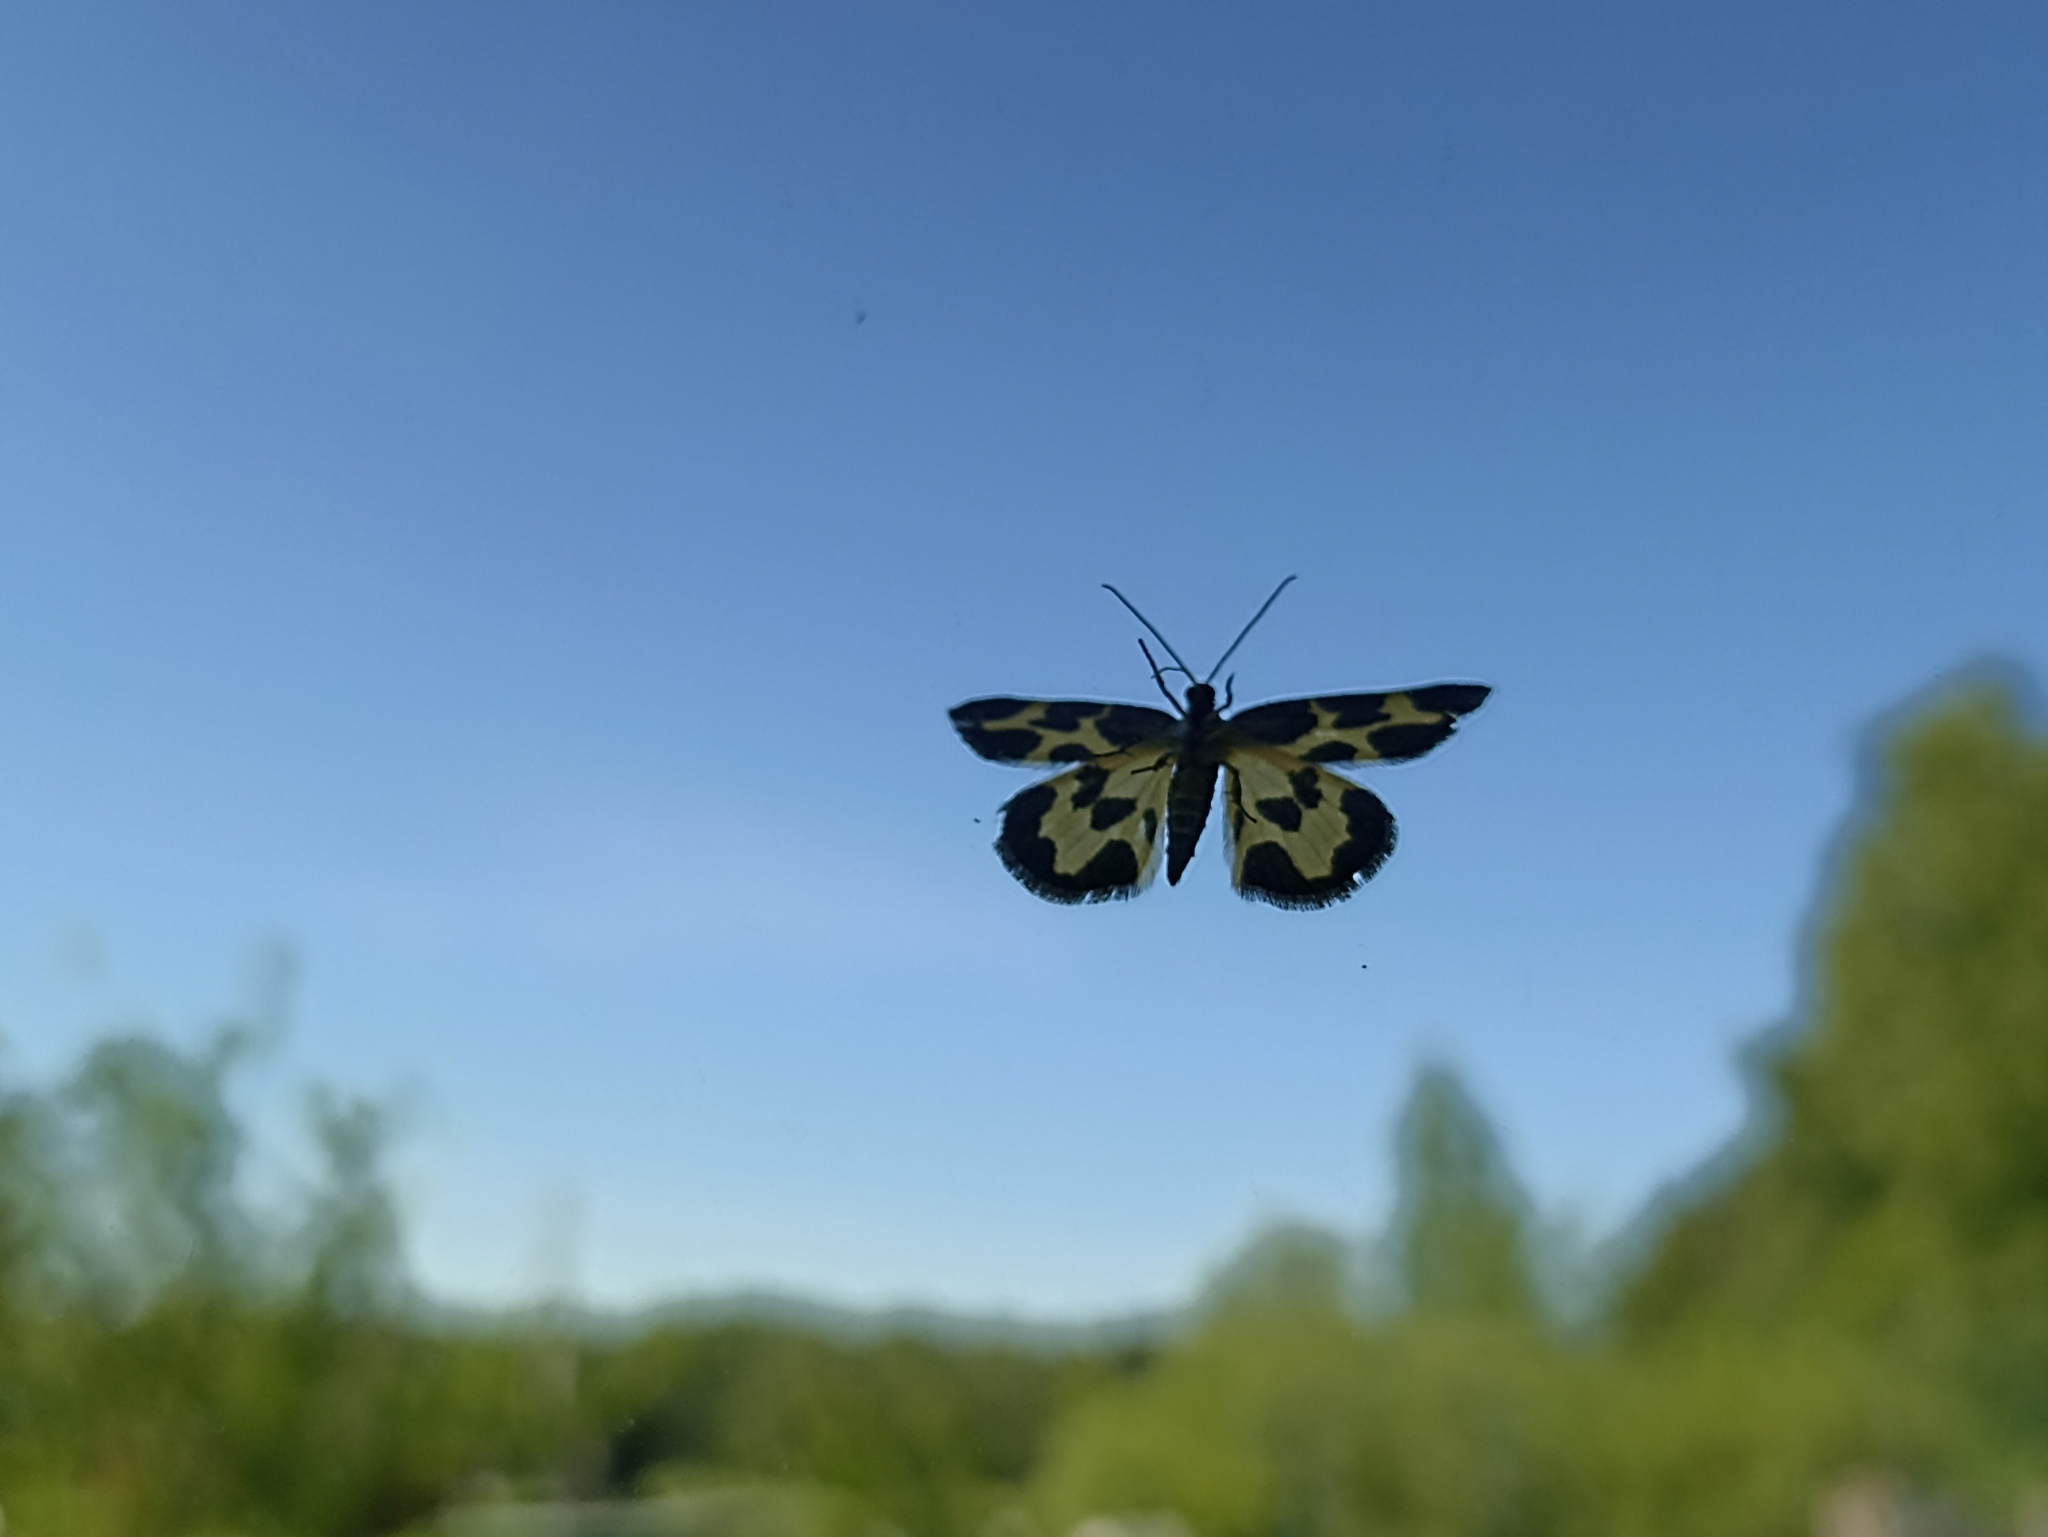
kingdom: Animalia
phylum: Arthropoda
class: Insecta
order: Lepidoptera
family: Geometridae
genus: Lomaspilis
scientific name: Lomaspilis opis
